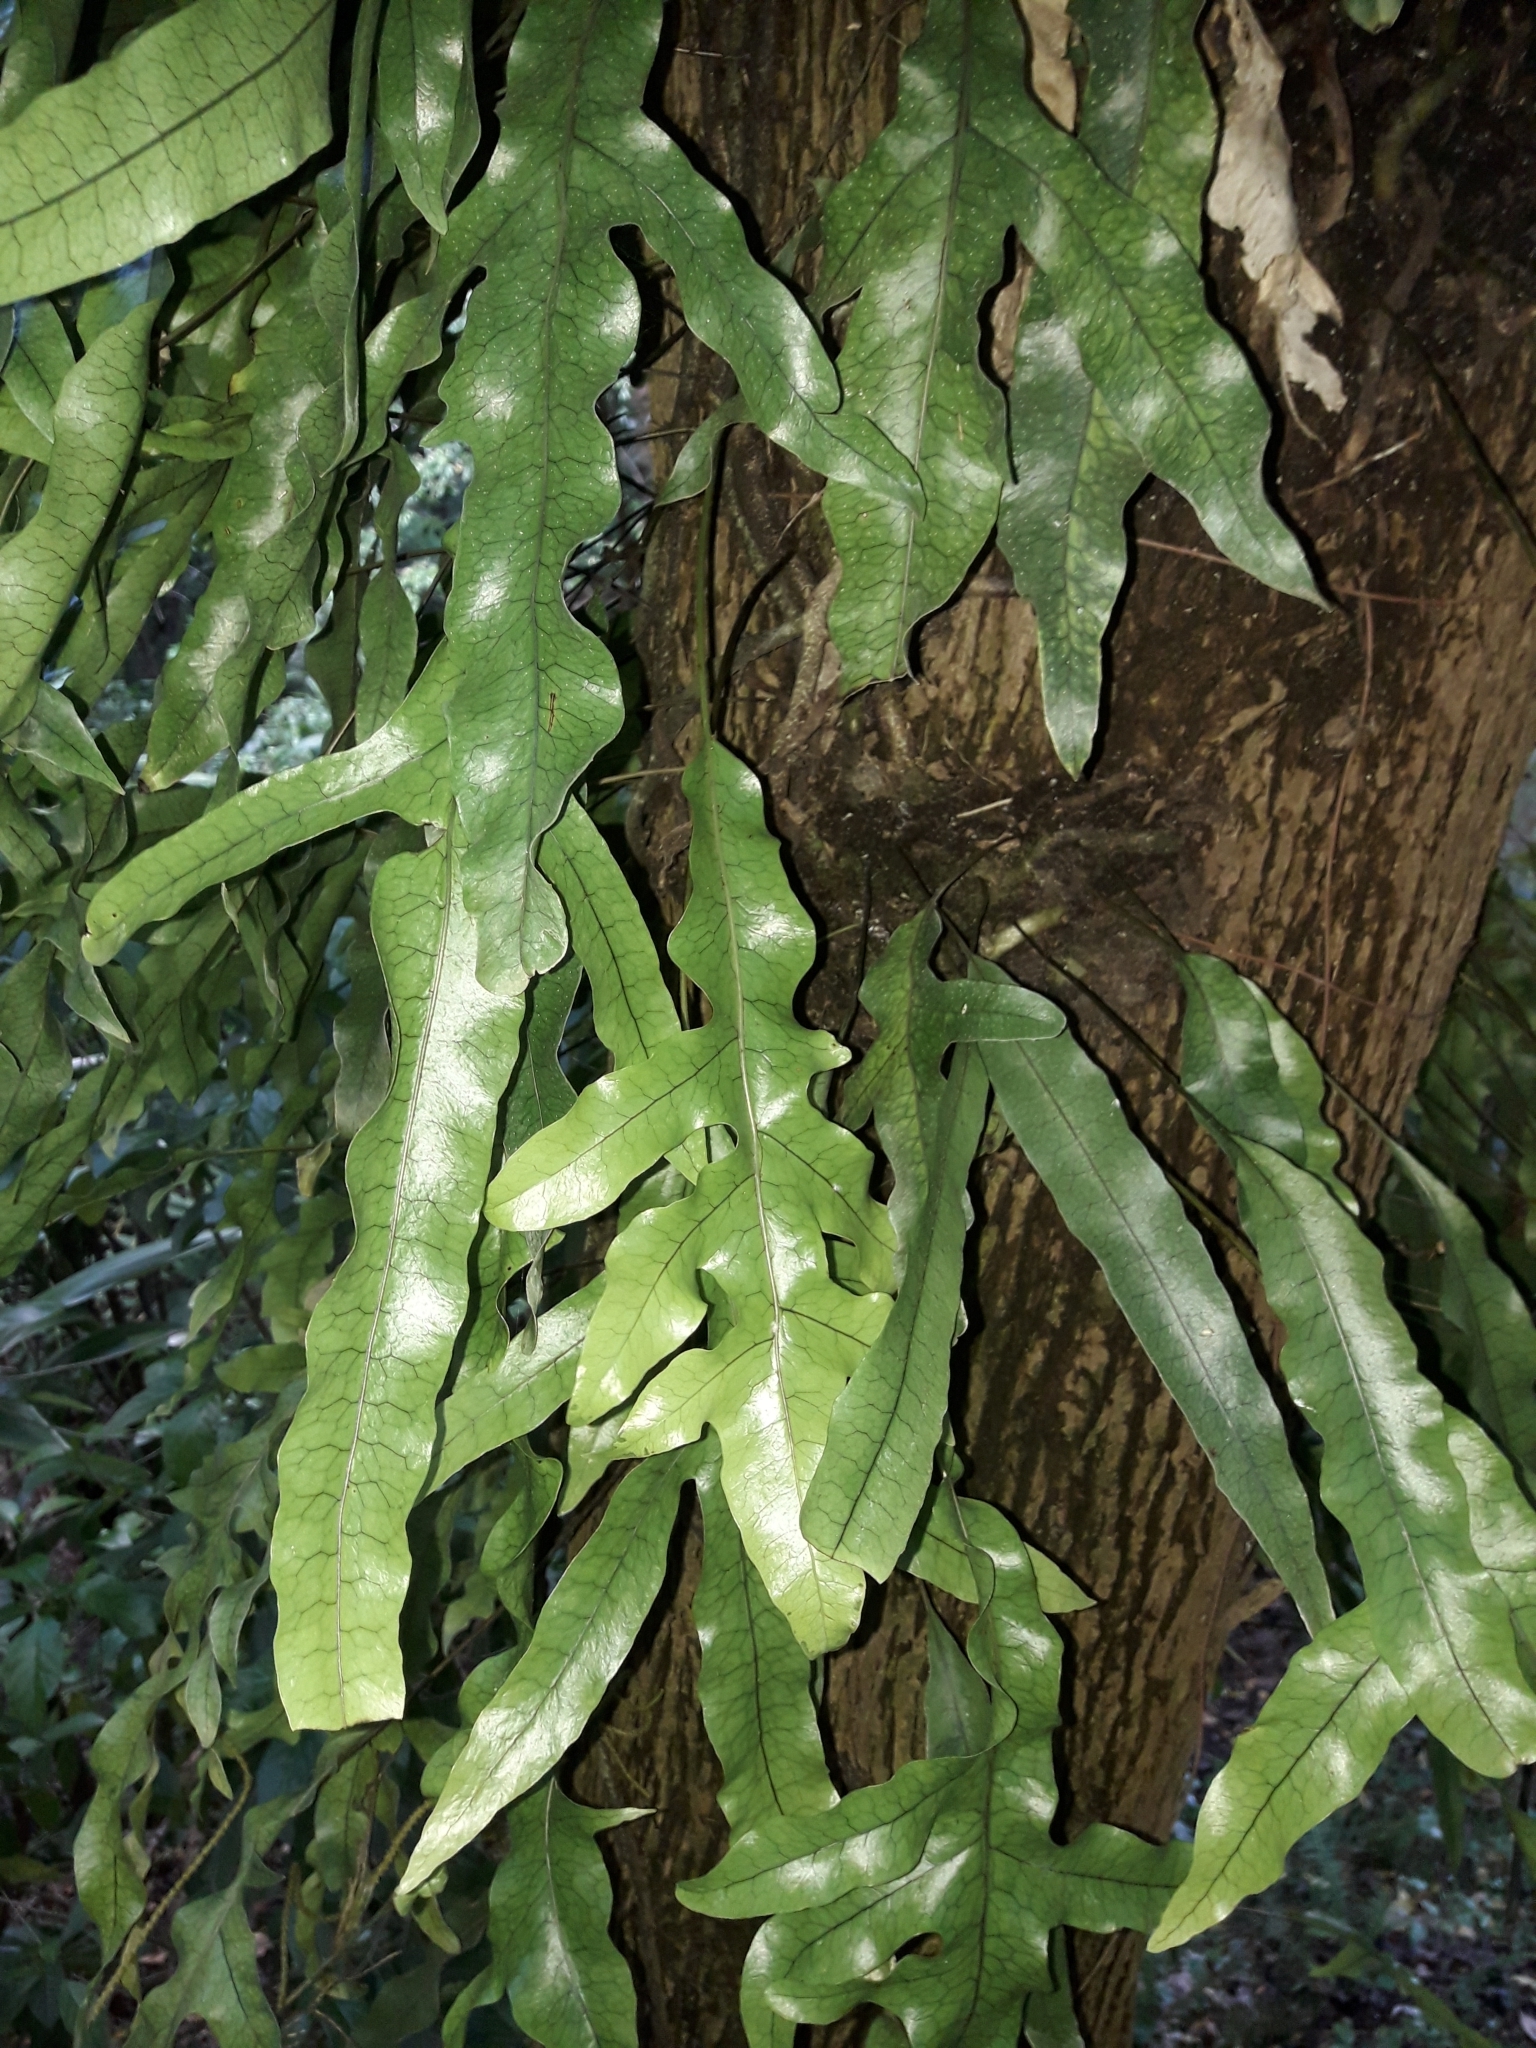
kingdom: Plantae
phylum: Tracheophyta
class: Polypodiopsida
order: Polypodiales
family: Polypodiaceae
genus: Lecanopteris
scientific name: Lecanopteris pustulata
